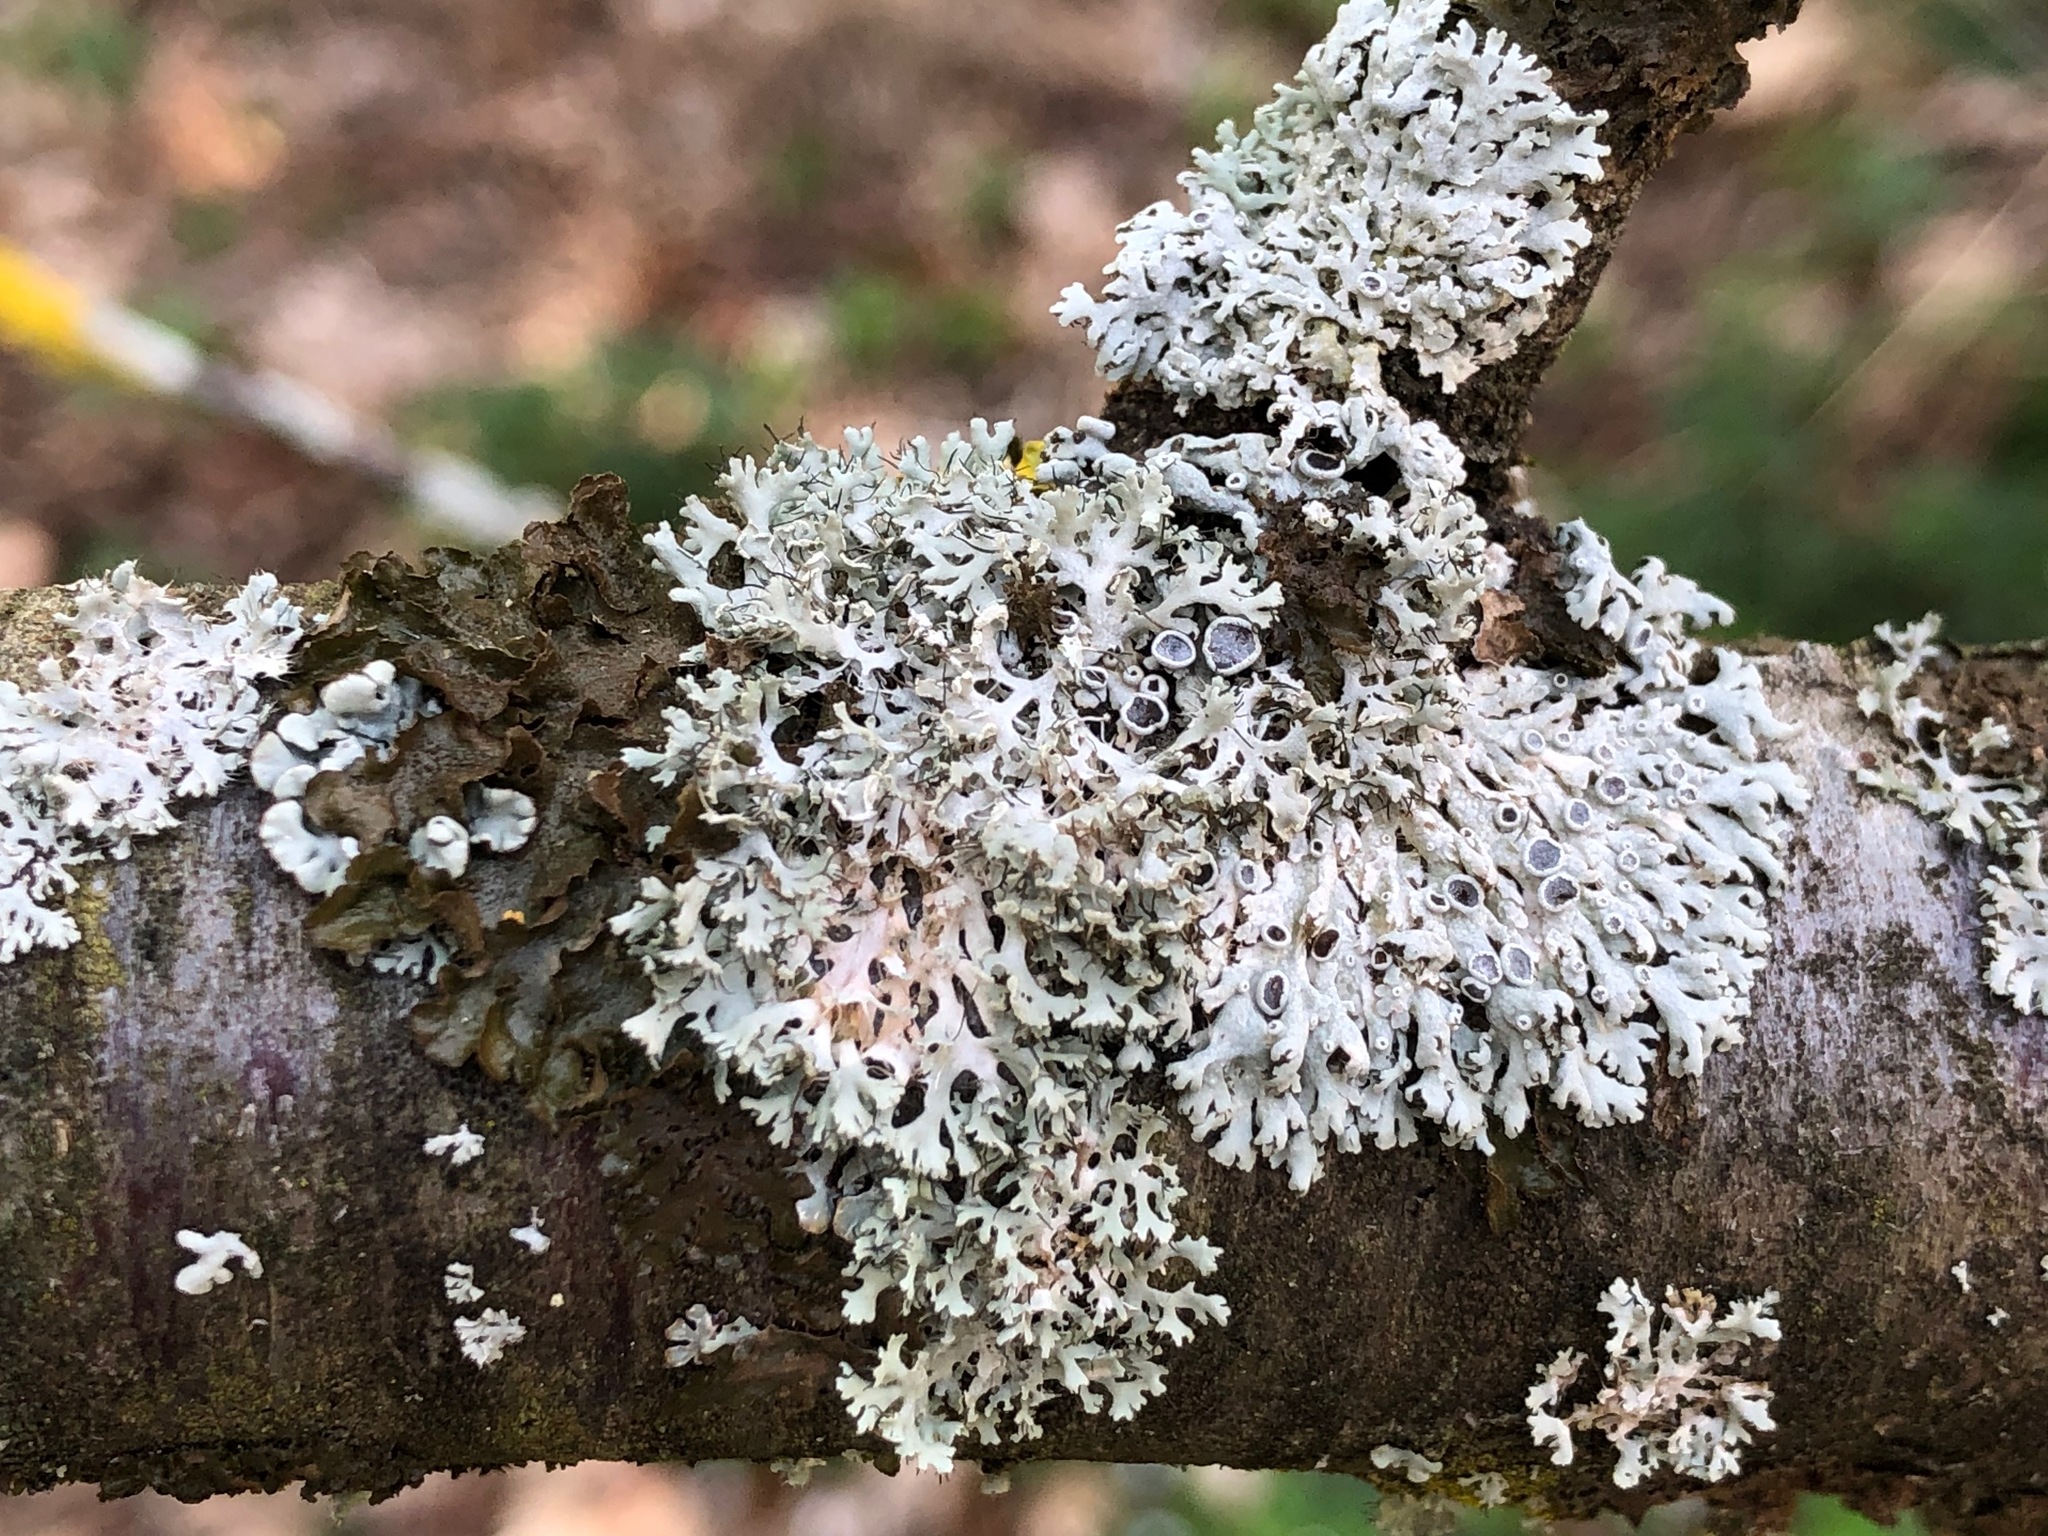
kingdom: Fungi
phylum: Ascomycota
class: Lecanoromycetes
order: Caliciales
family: Physciaceae
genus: Physcia
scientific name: Physcia aipolia
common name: Hoary rosette lichen
